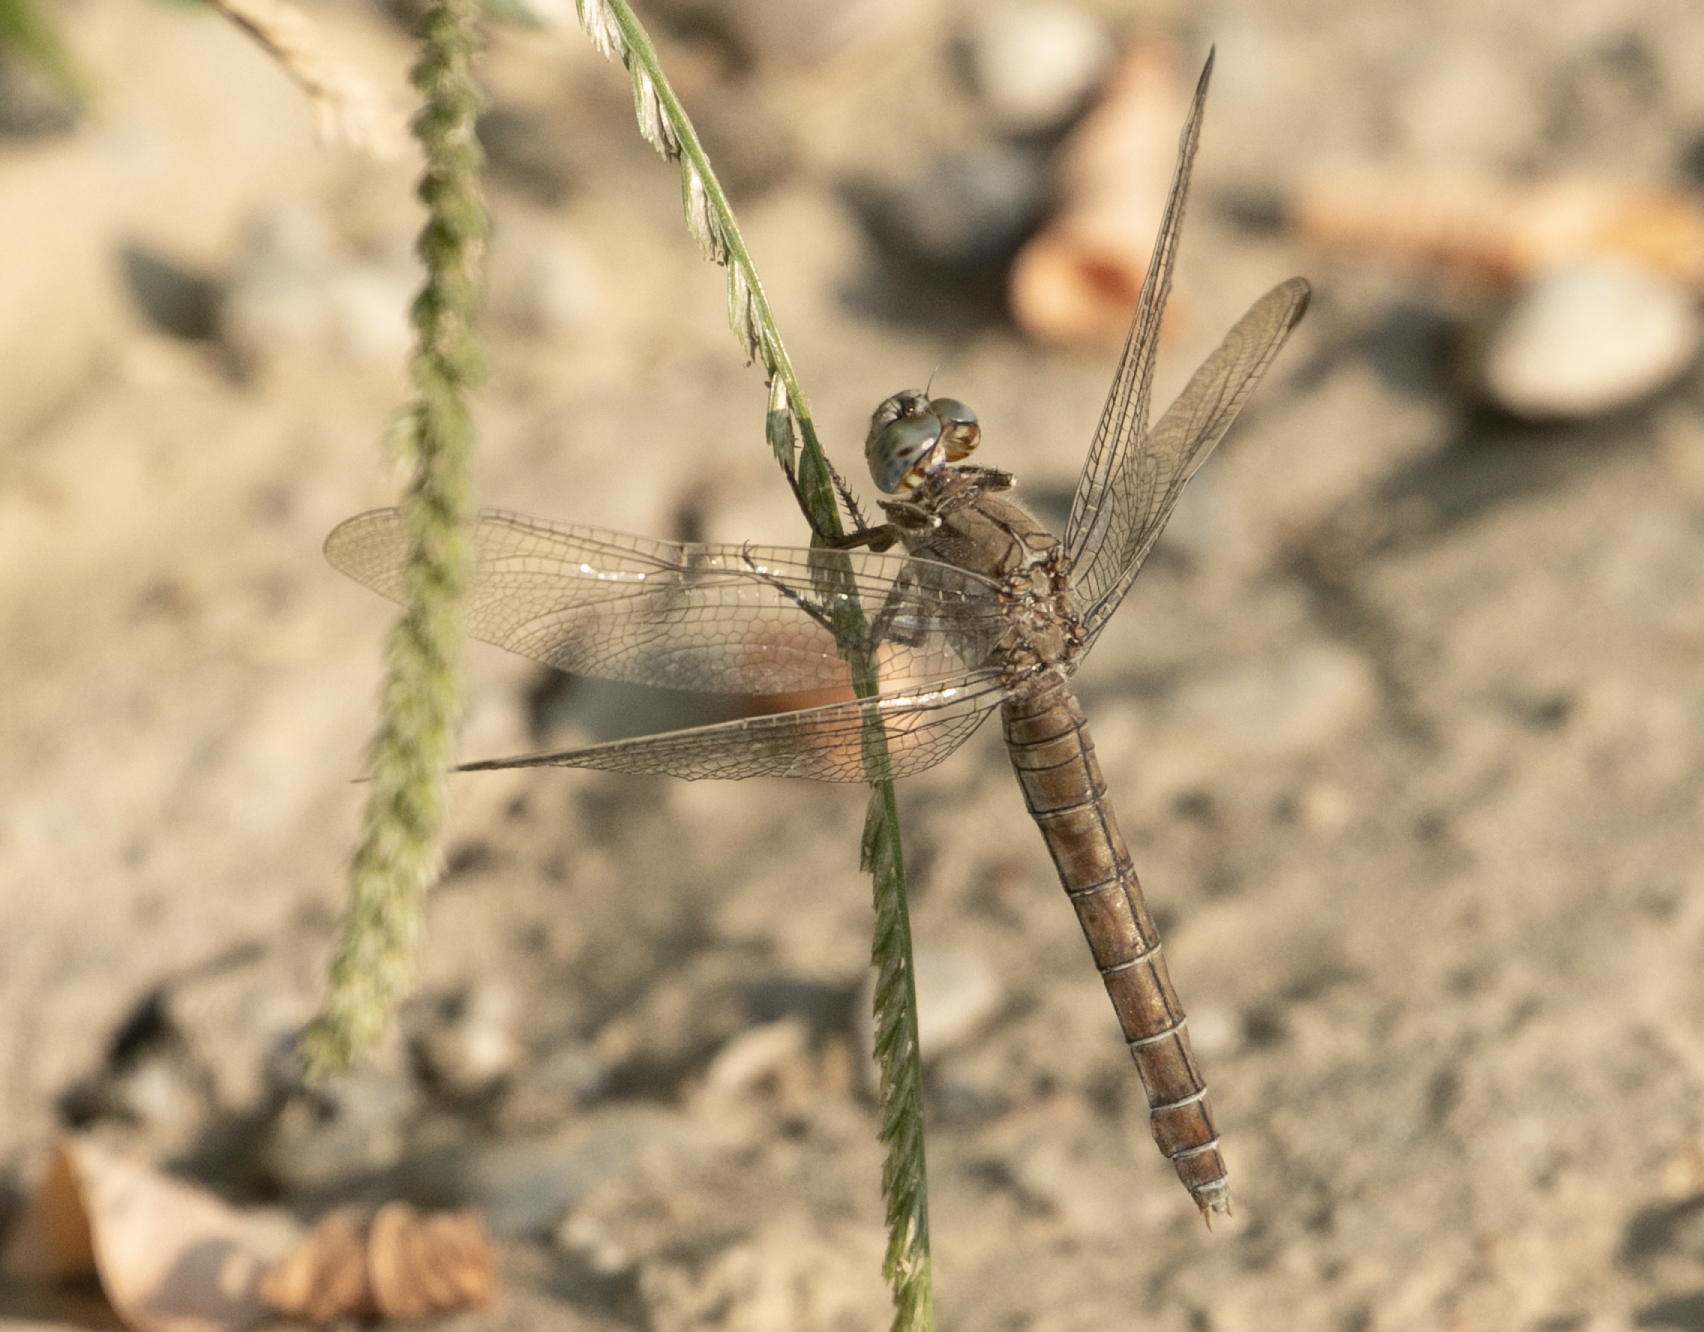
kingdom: Animalia
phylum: Arthropoda
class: Insecta
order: Odonata
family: Libellulidae
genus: Orthetrum
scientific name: Orthetrum brunneum
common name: Southern skimmer
